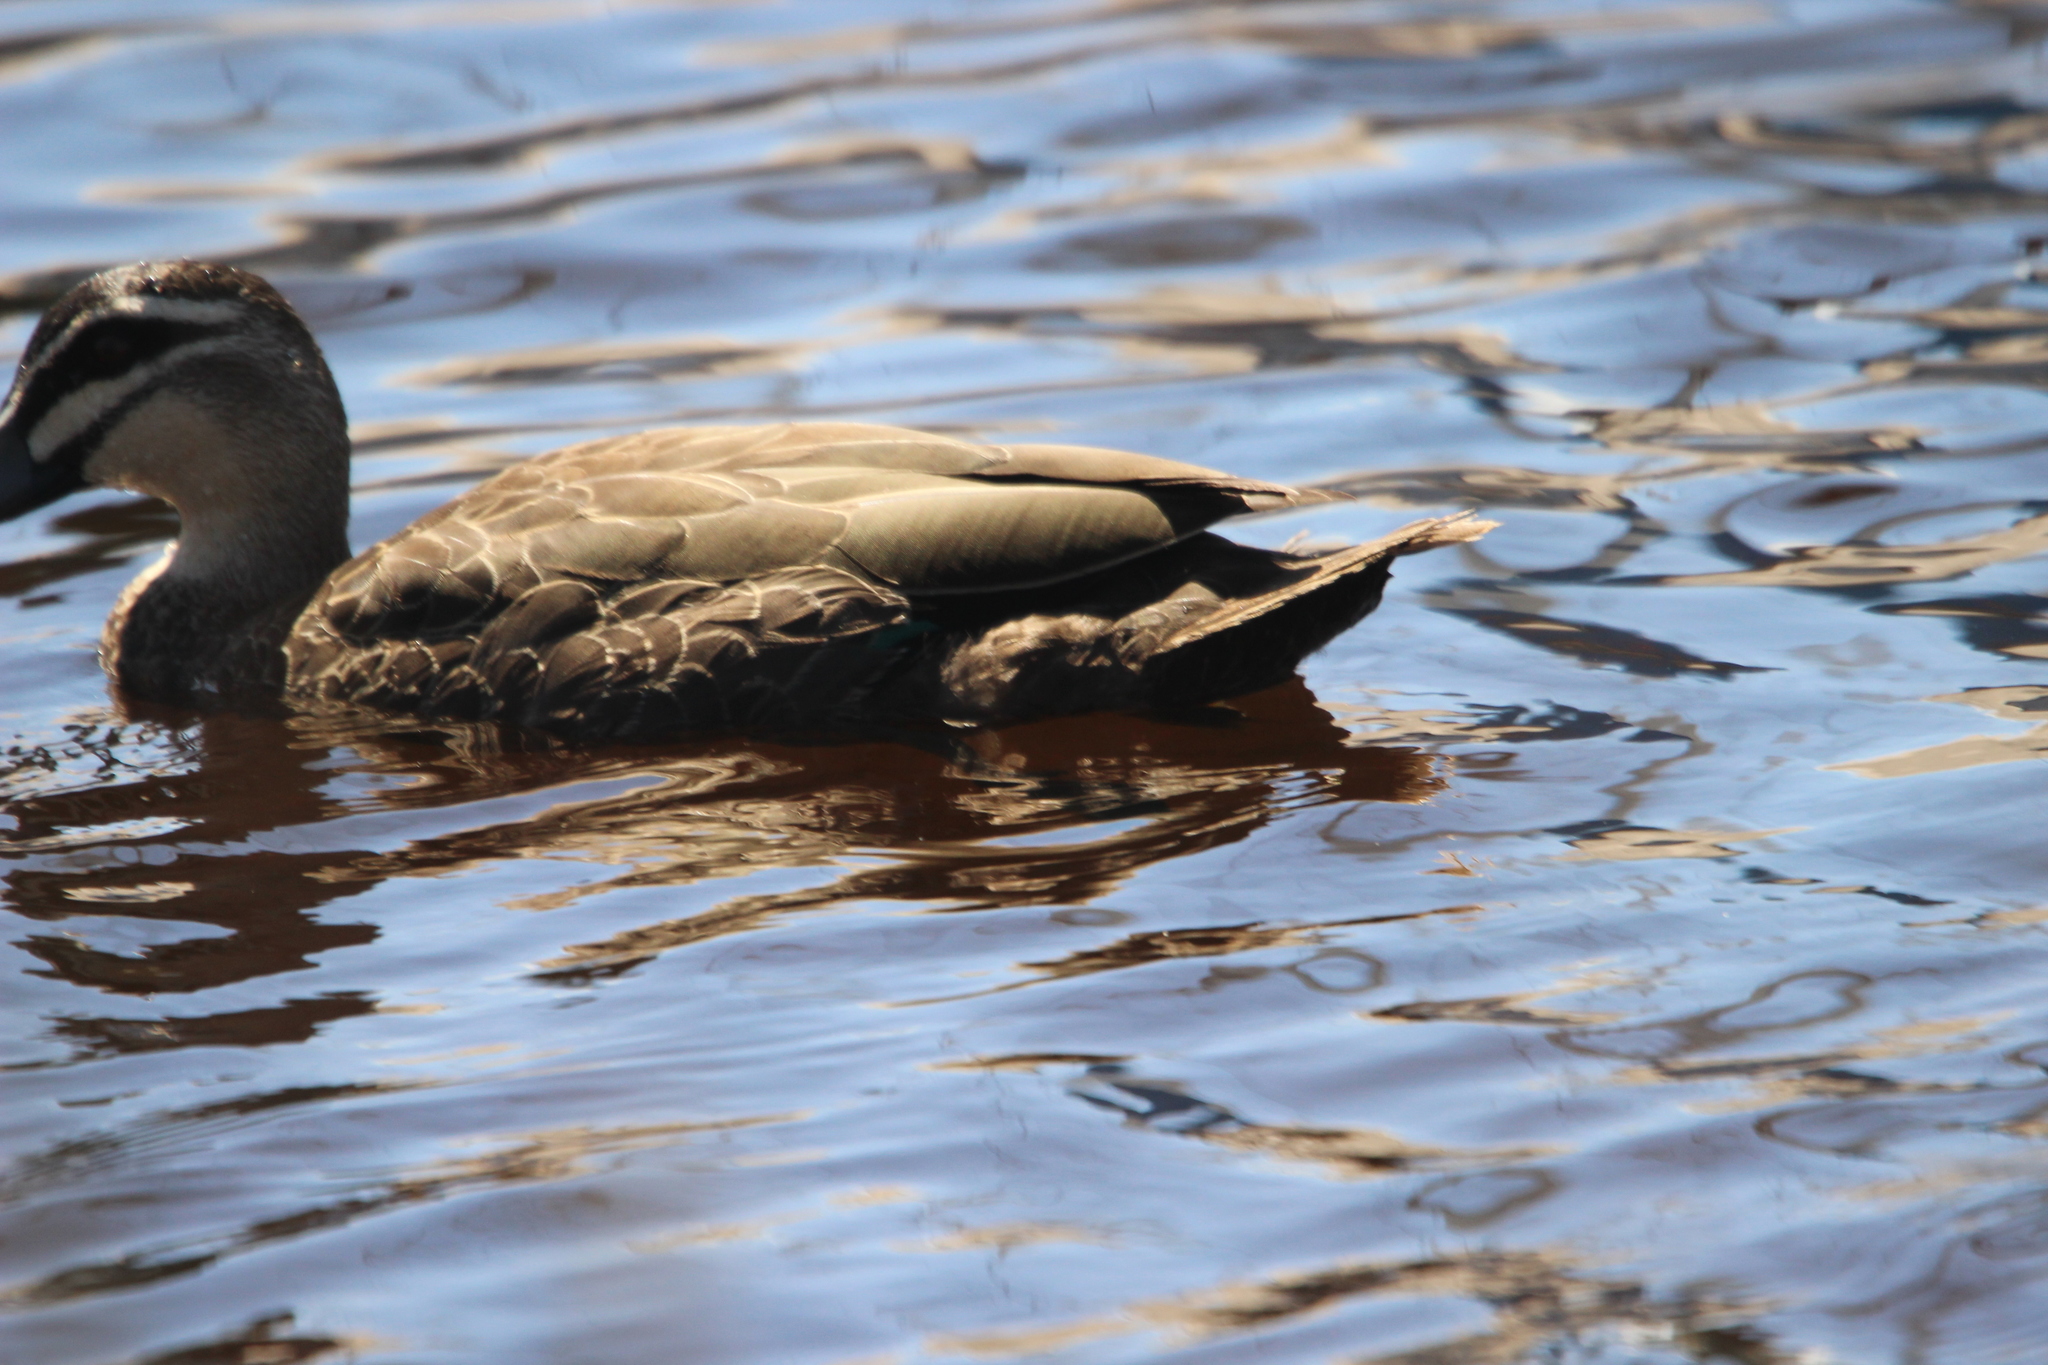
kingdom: Animalia
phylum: Chordata
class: Aves
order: Anseriformes
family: Anatidae
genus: Anas
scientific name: Anas superciliosa
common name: Pacific black duck
